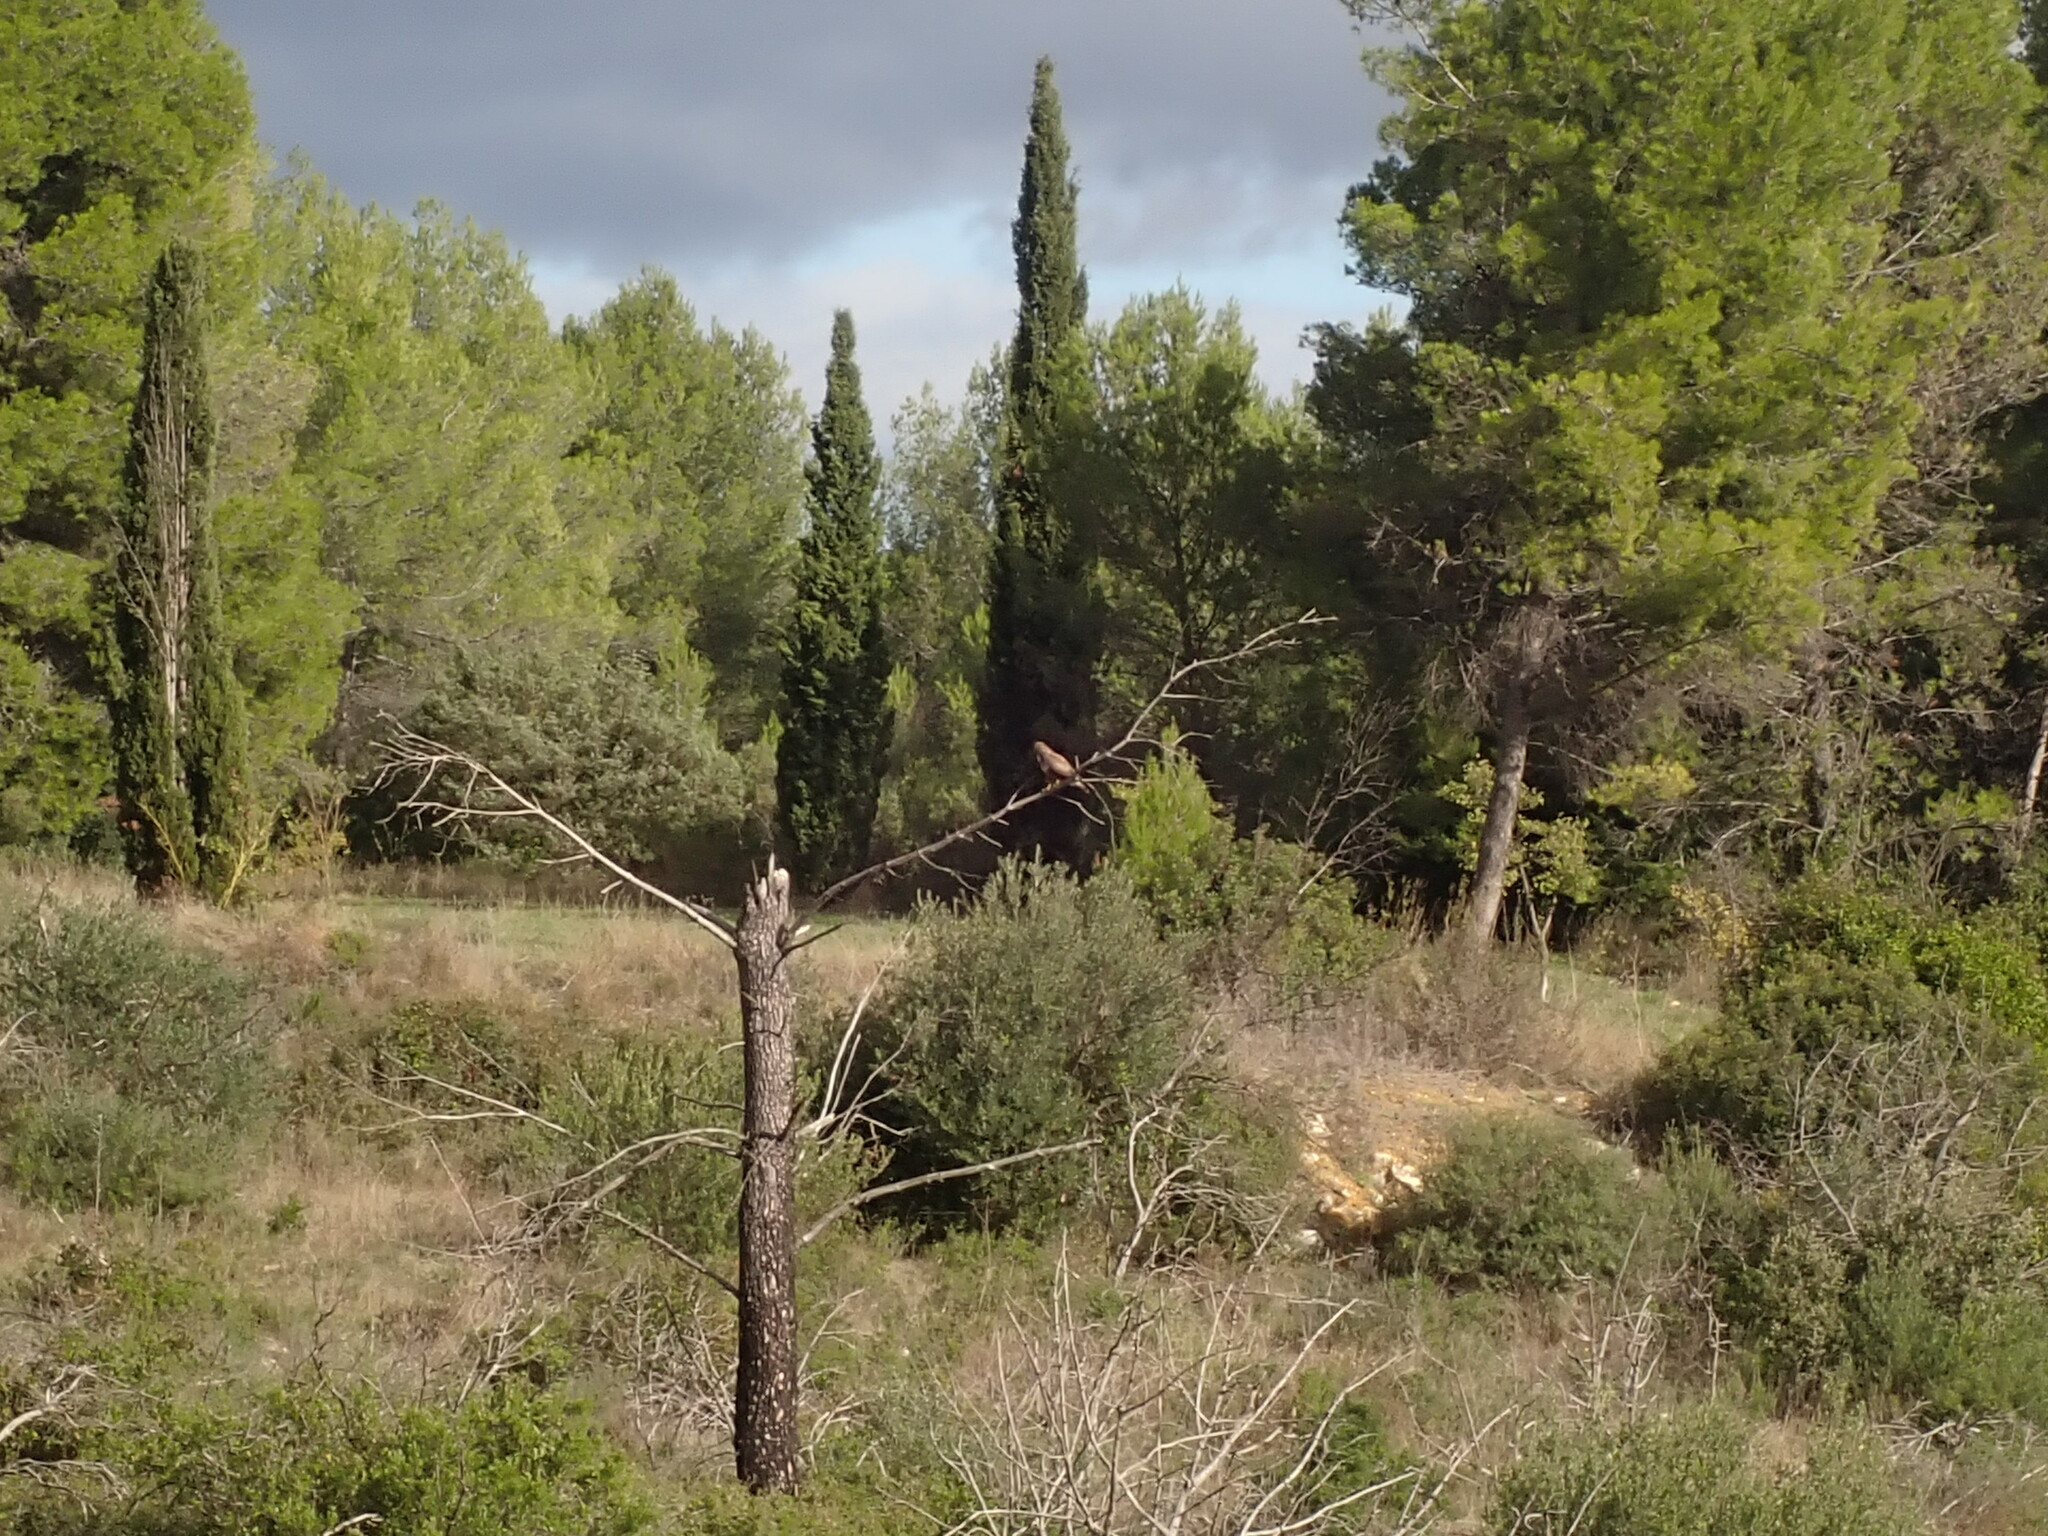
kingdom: Animalia
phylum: Chordata
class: Aves
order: Accipitriformes
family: Accipitridae
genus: Buteo
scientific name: Buteo buteo
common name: Common buzzard
